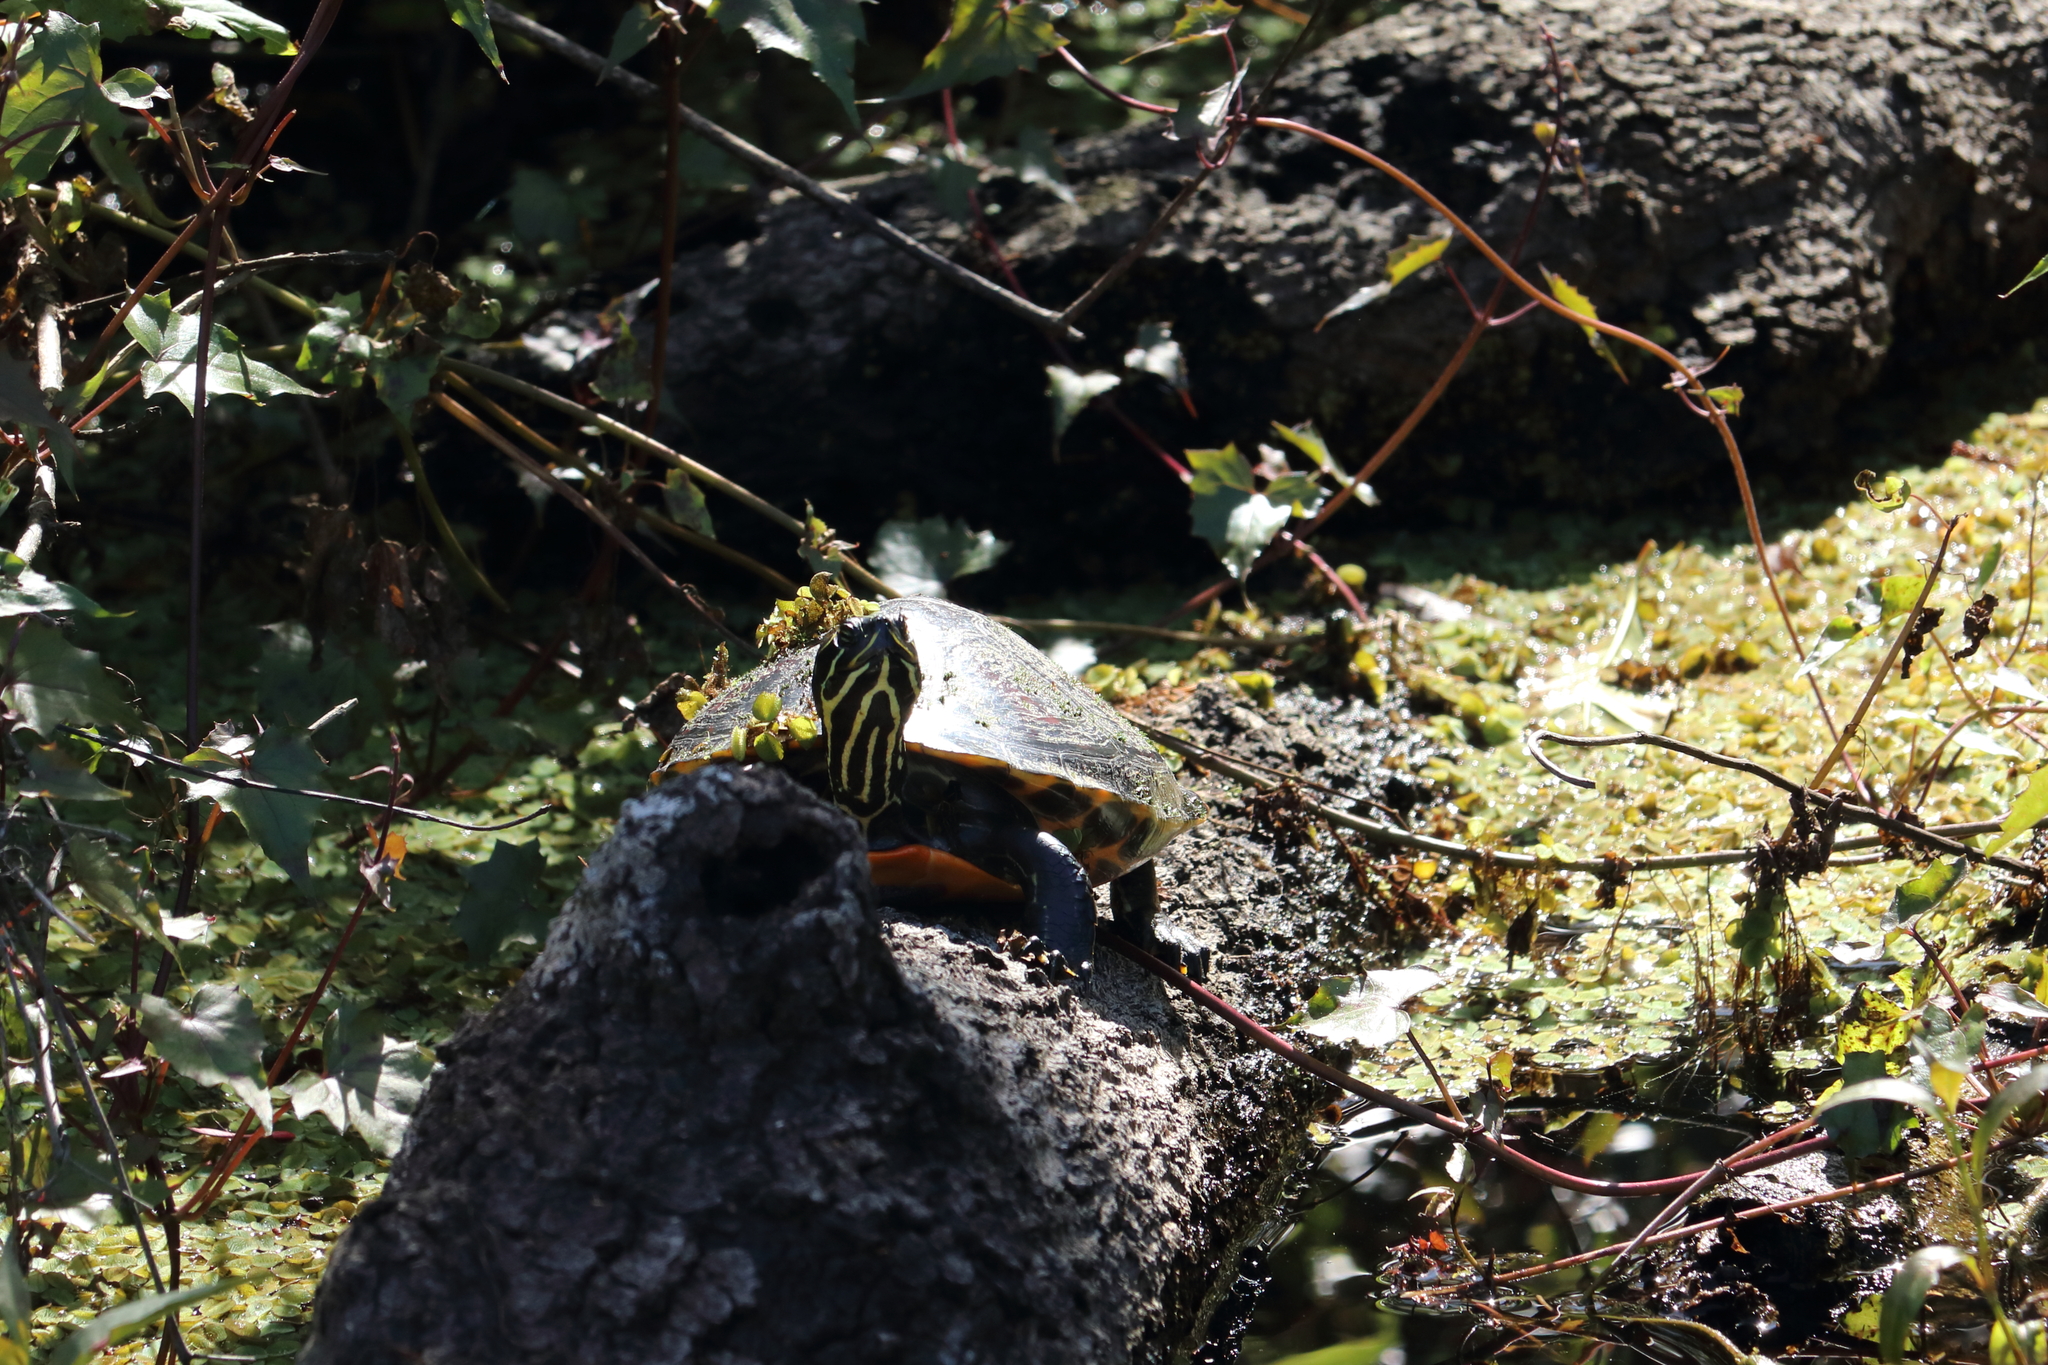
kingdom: Animalia
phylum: Chordata
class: Testudines
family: Emydidae
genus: Pseudemys
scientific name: Pseudemys nelsoni
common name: Florida red-bellied turtle
